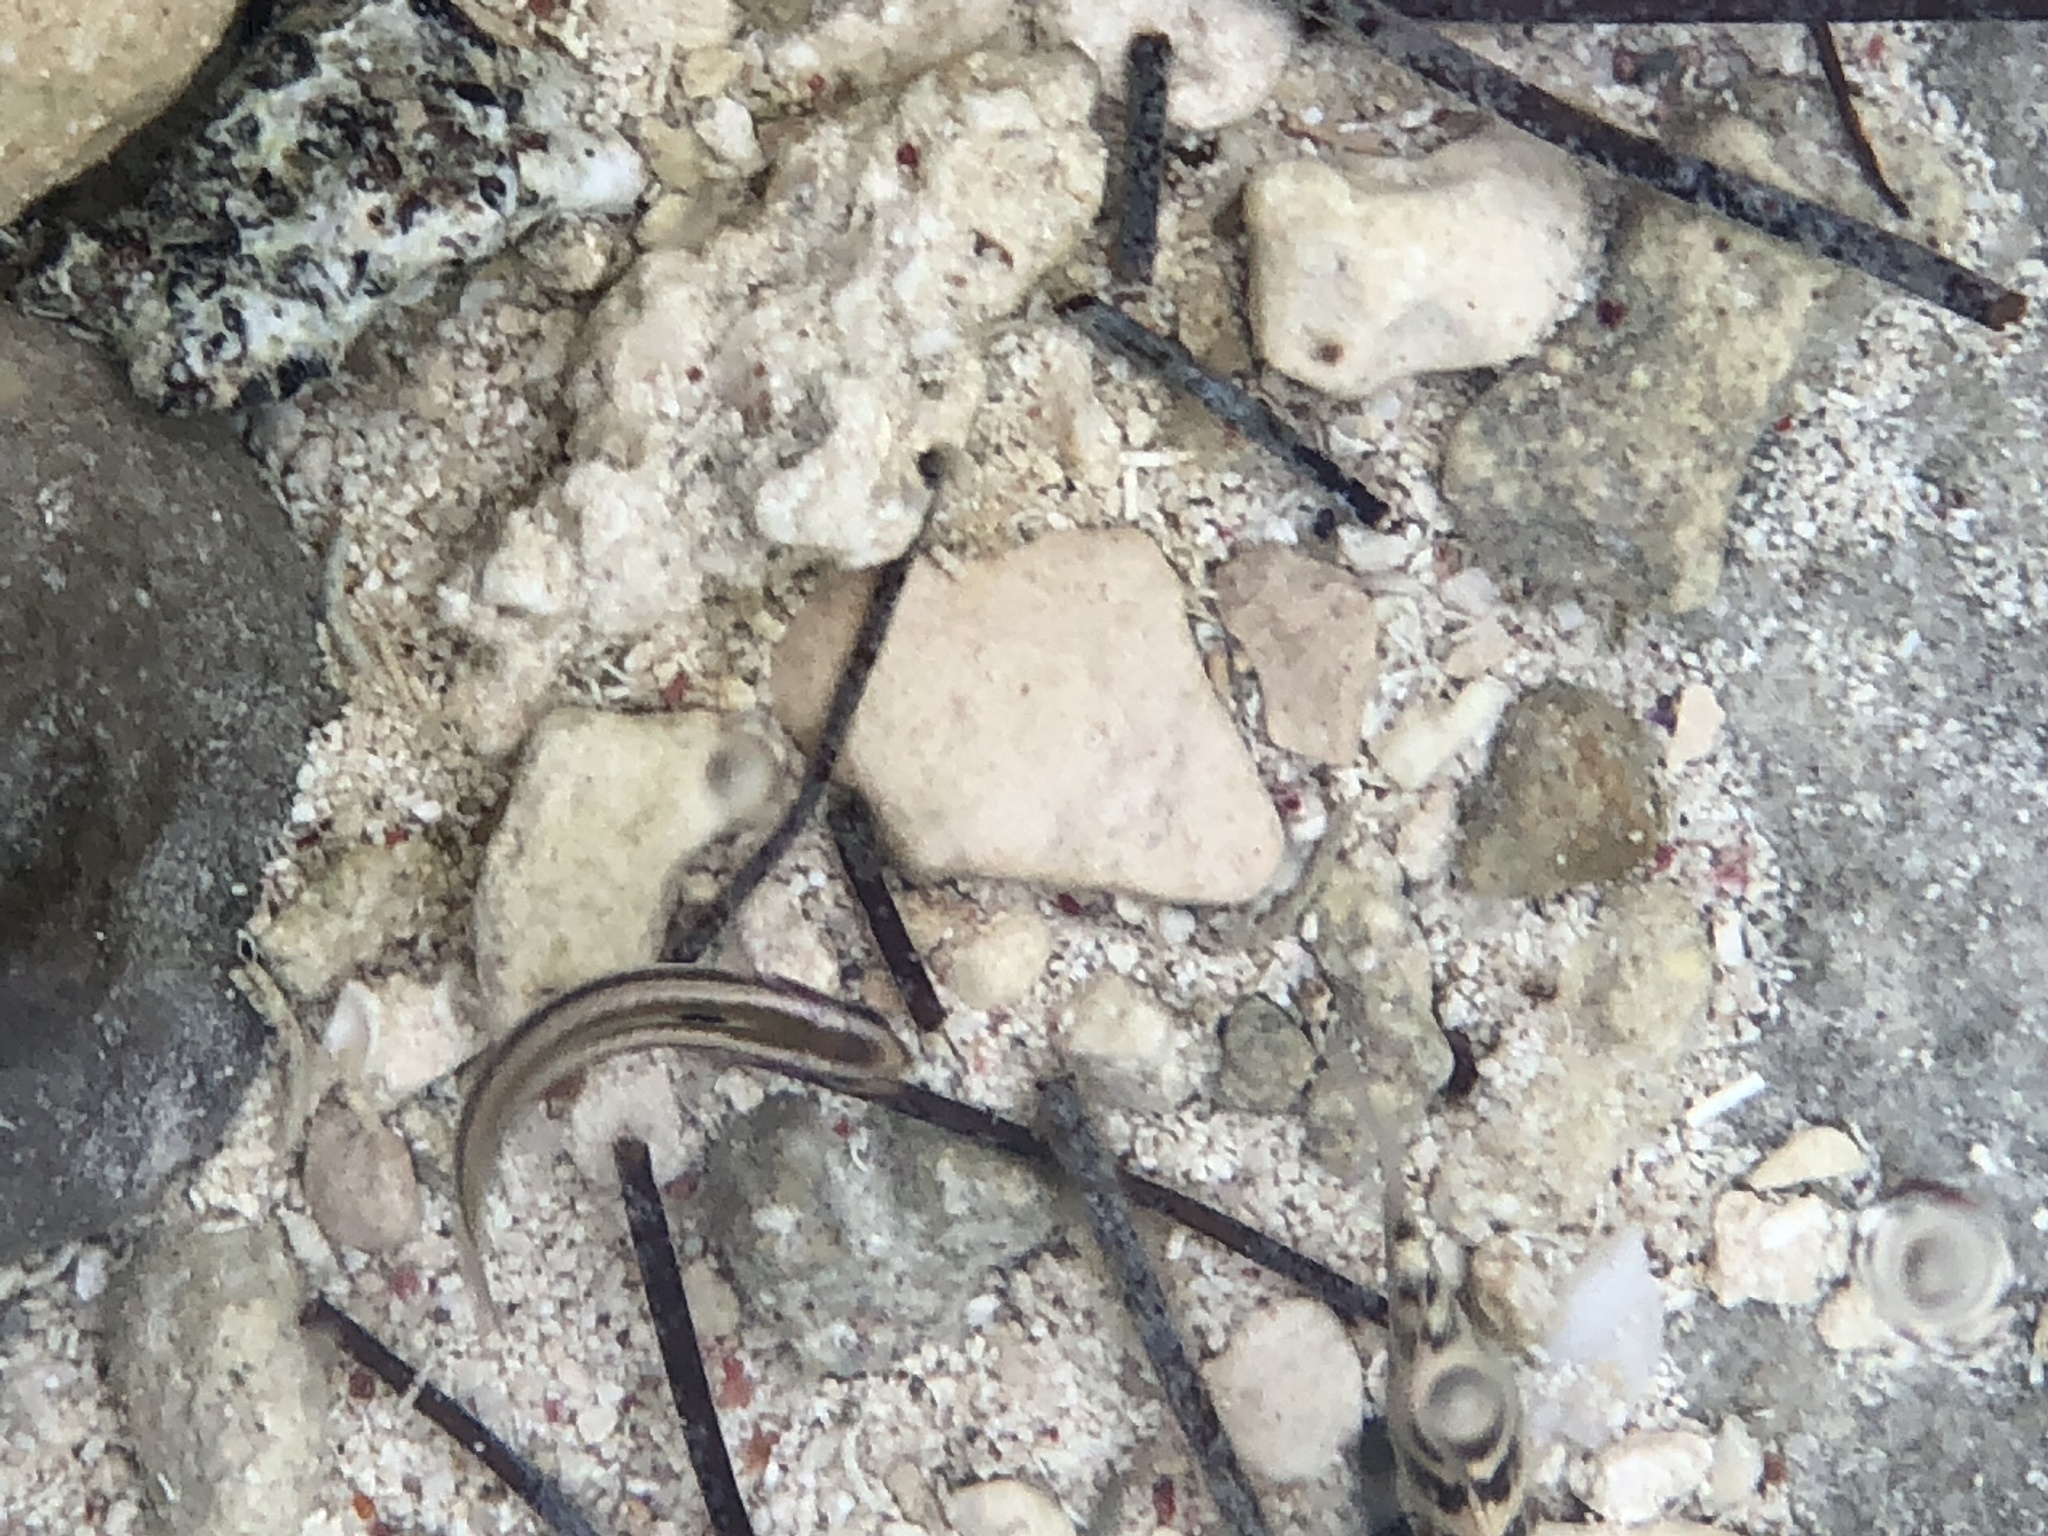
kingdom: Animalia
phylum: Chordata
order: Perciformes
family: Pomacentridae
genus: Abudefduf
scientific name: Abudefduf taurus
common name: Night sergeant
